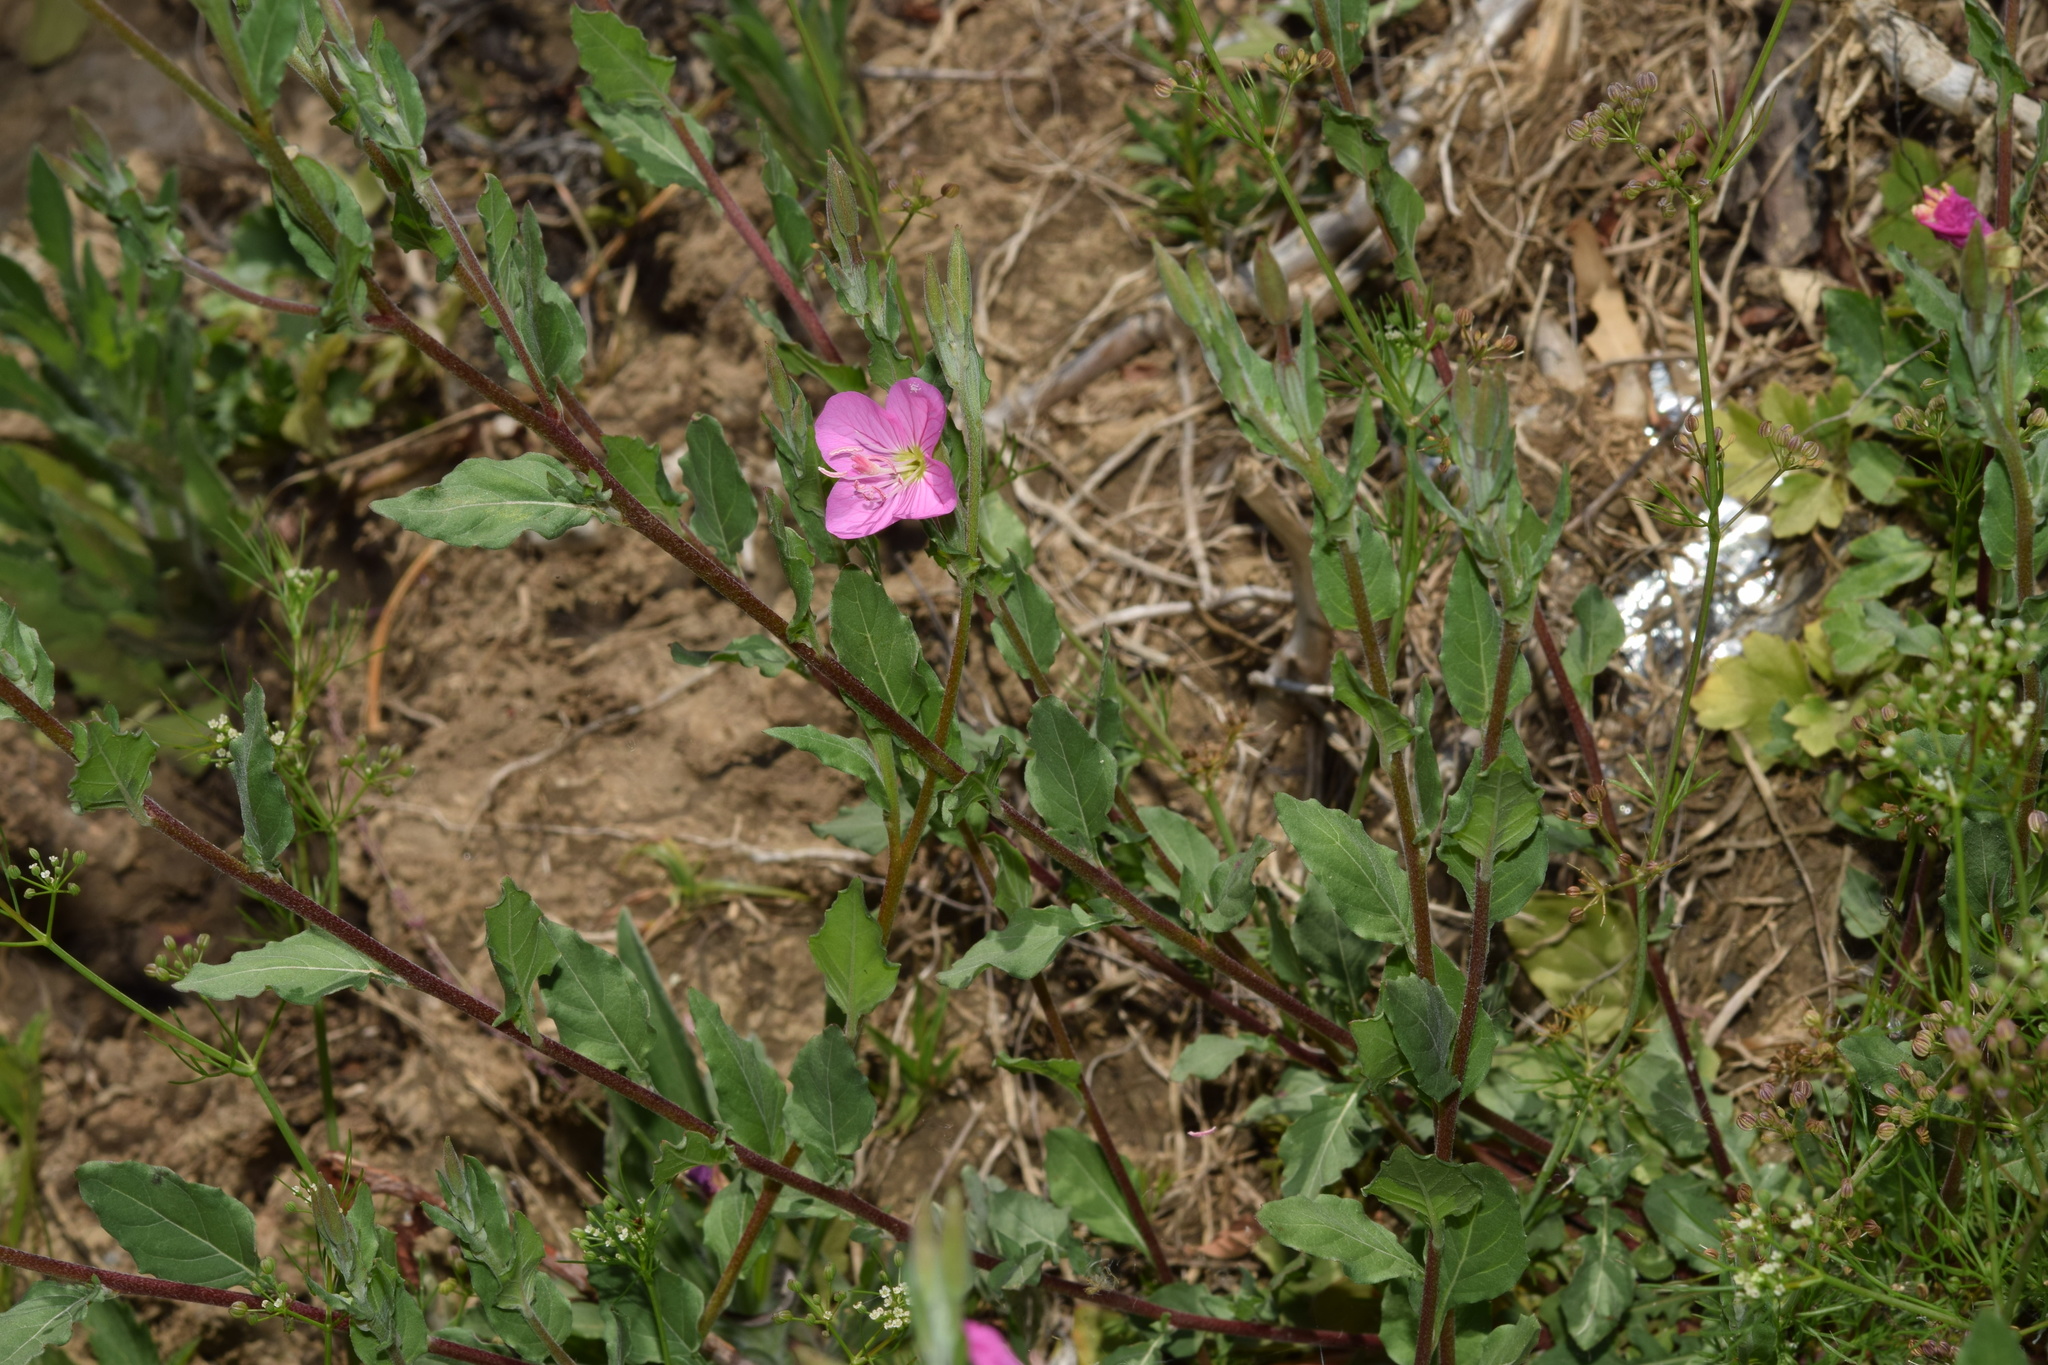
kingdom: Plantae
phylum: Tracheophyta
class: Magnoliopsida
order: Myrtales
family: Onagraceae
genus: Oenothera
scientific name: Oenothera rosea
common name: Rosy evening-primrose
